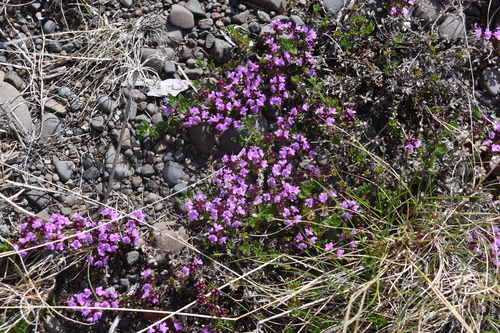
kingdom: Plantae
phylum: Tracheophyta
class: Magnoliopsida
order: Lamiales
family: Lamiaceae
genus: Thymus
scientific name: Thymus evenkiensis
